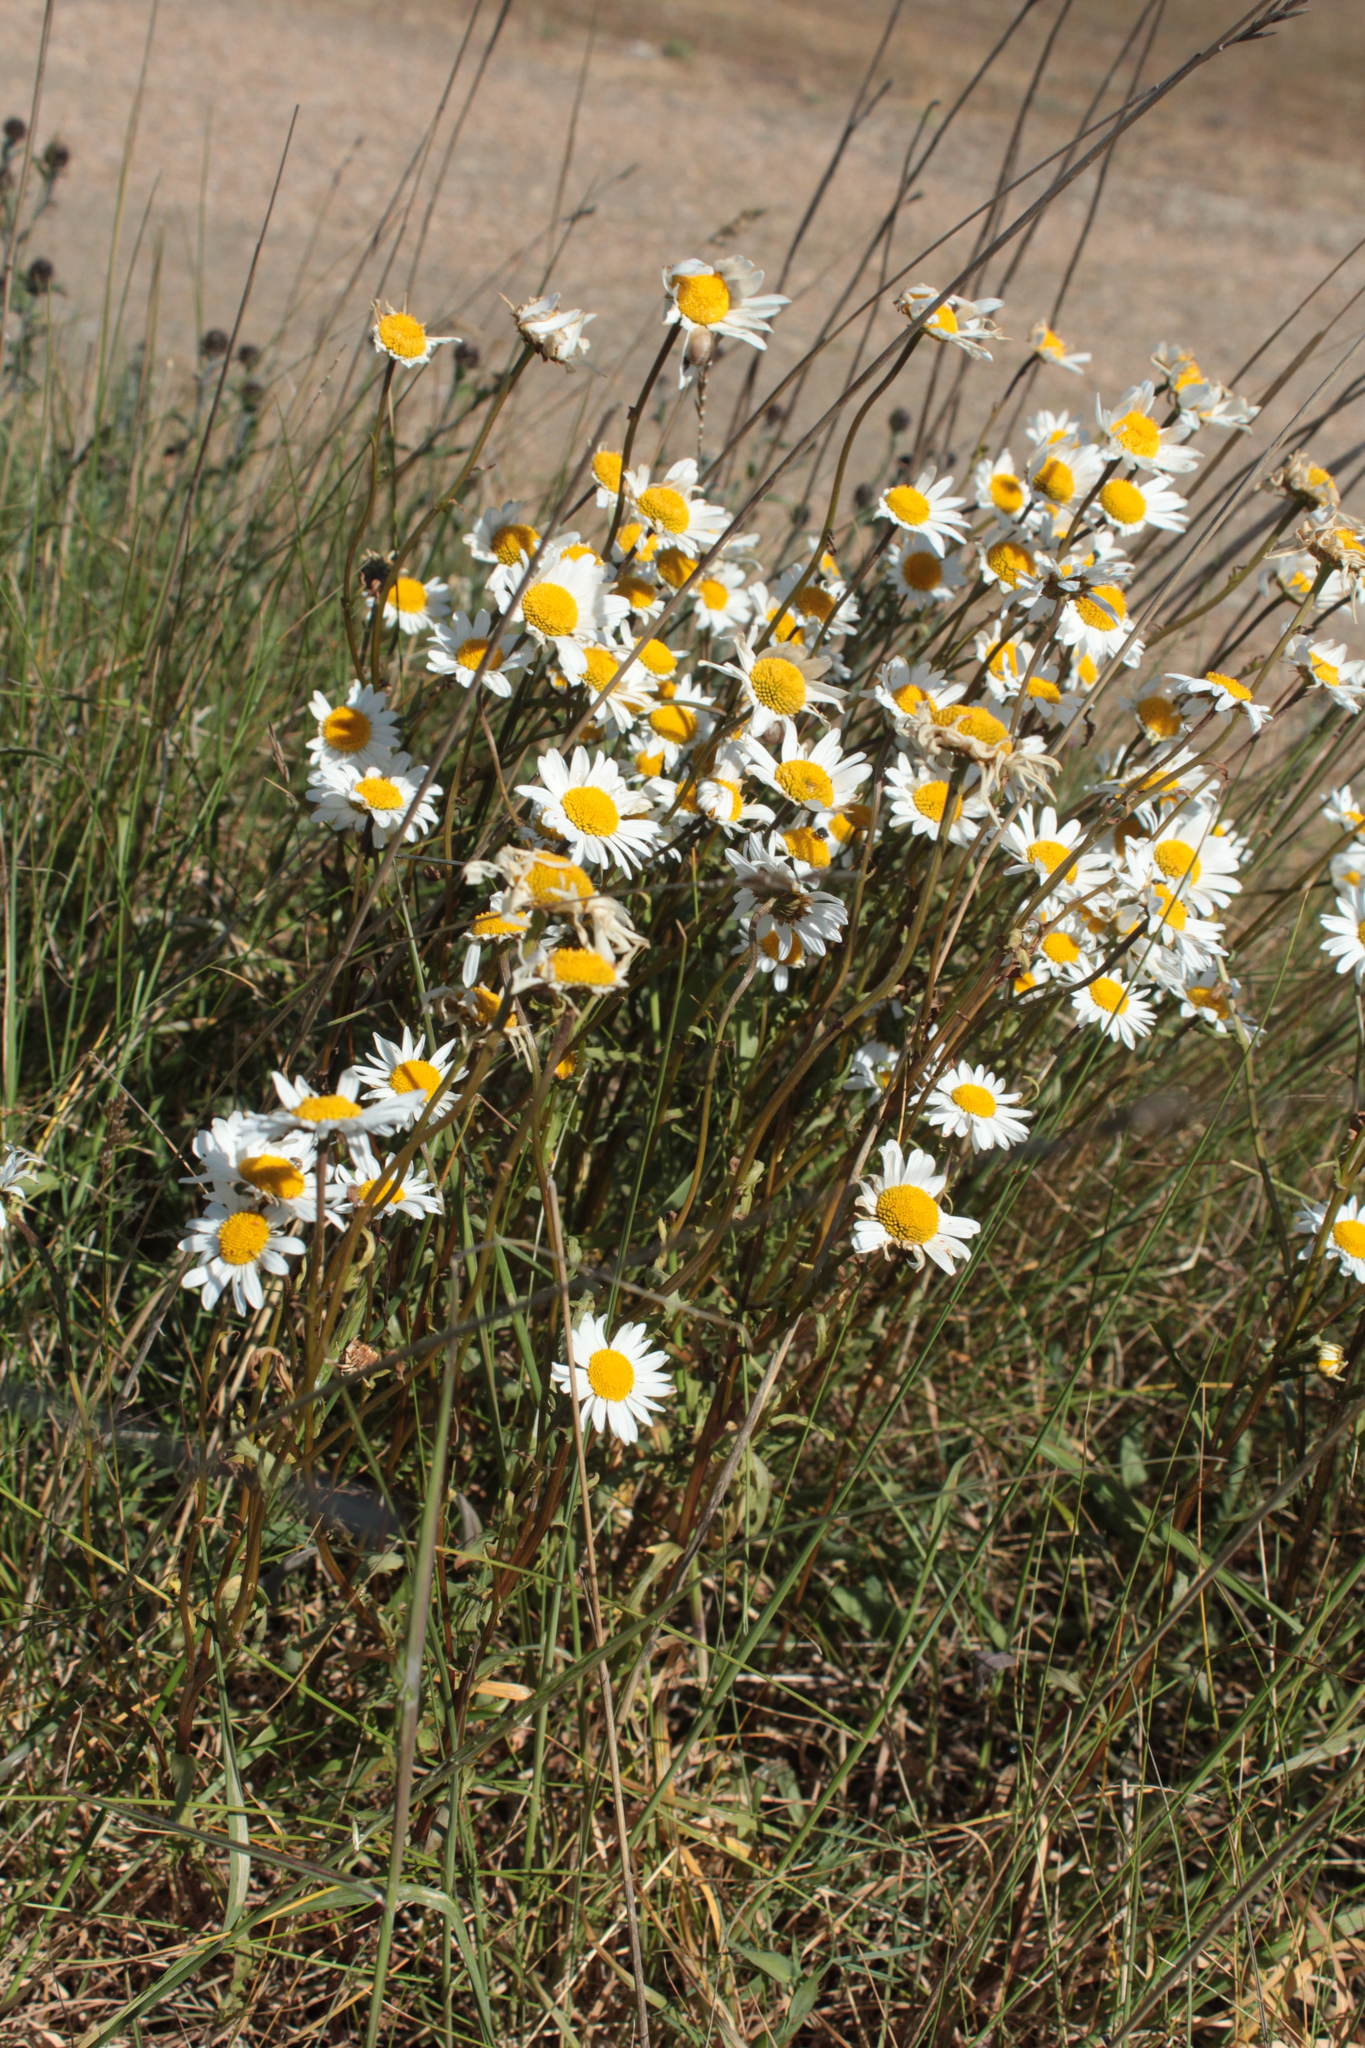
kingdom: Plantae
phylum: Tracheophyta
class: Magnoliopsida
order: Asterales
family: Asteraceae
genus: Leucanthemum
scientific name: Leucanthemum vulgare
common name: Oxeye daisy
